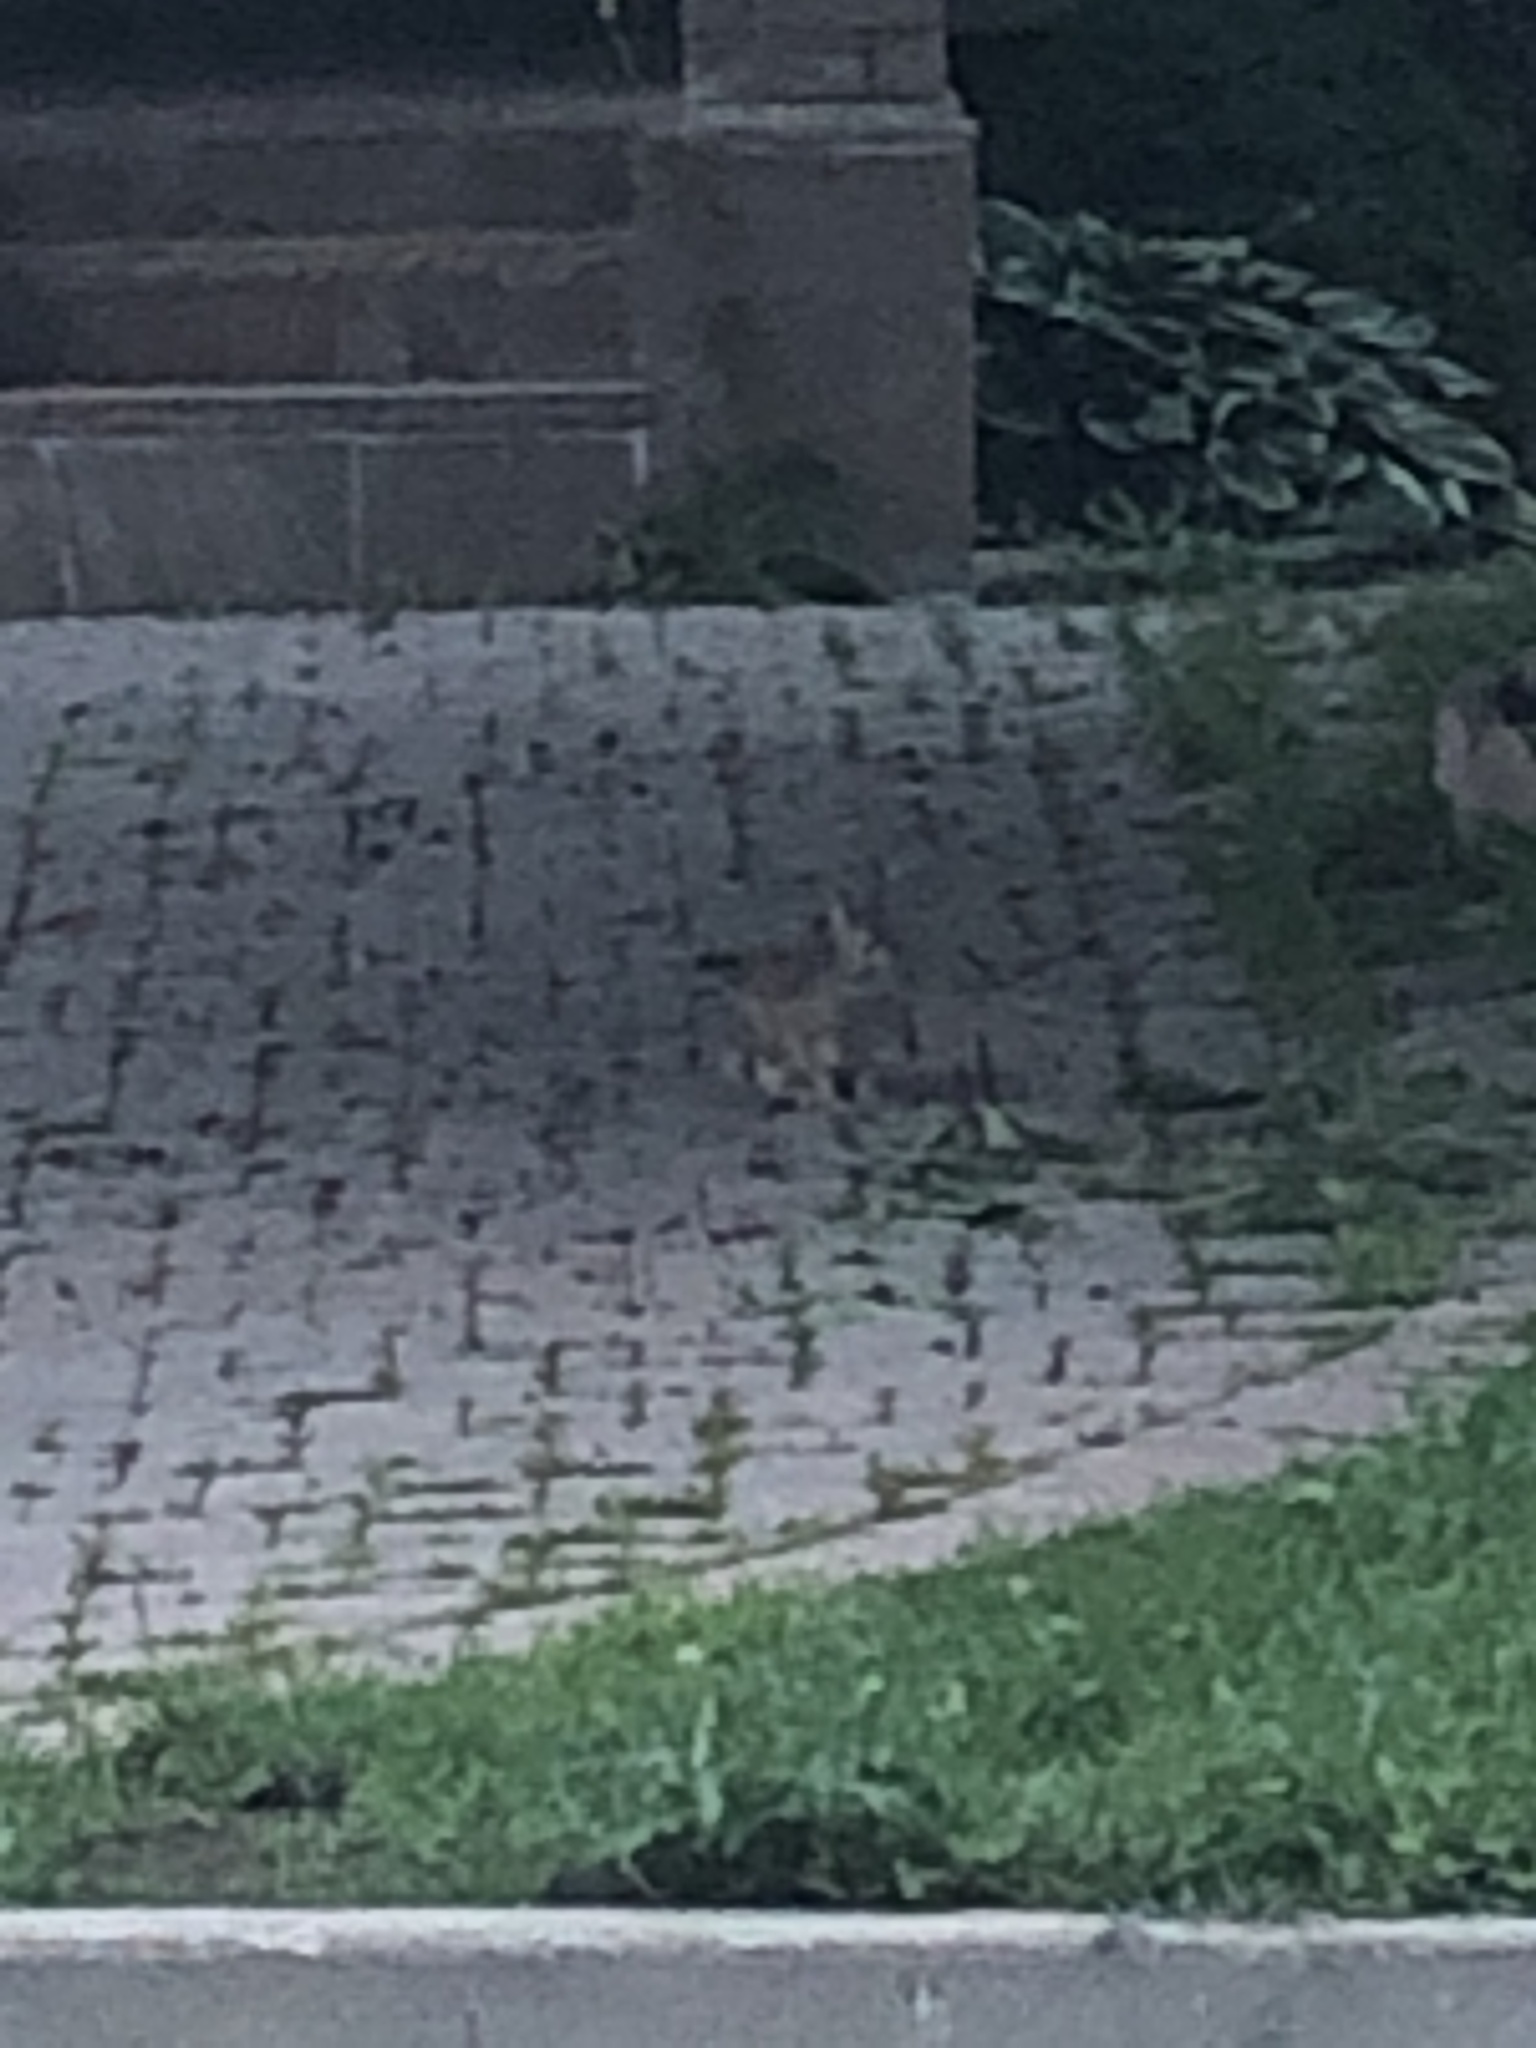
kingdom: Animalia
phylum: Chordata
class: Mammalia
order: Lagomorpha
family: Leporidae
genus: Sylvilagus
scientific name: Sylvilagus floridanus
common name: Eastern cottontail
